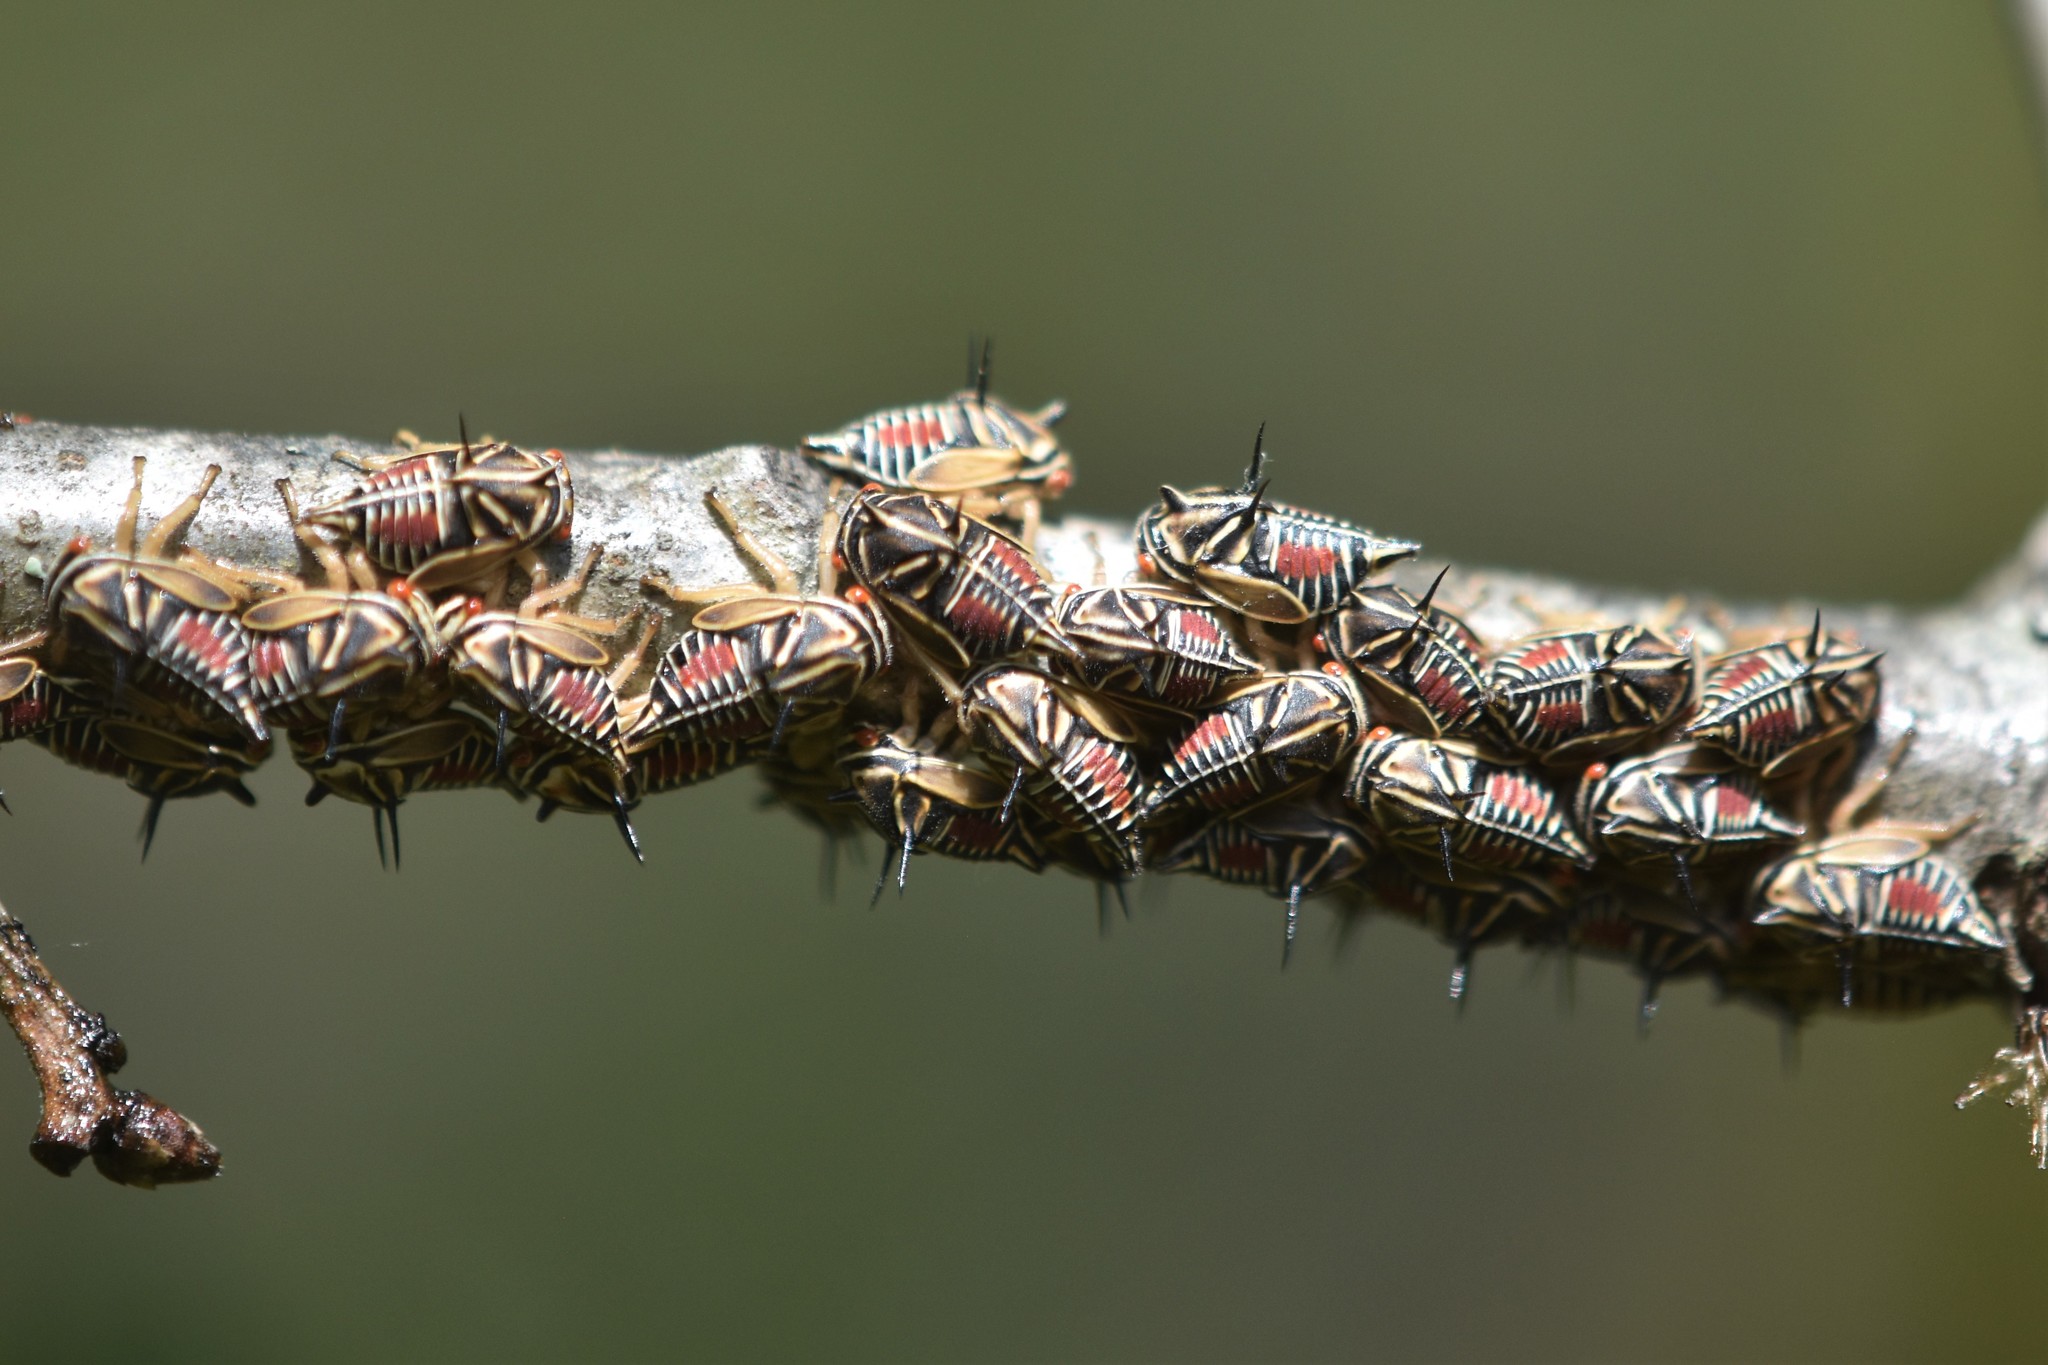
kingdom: Animalia
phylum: Arthropoda
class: Insecta
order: Hemiptera
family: Membracidae
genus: Platycotis
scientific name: Platycotis vittatus
